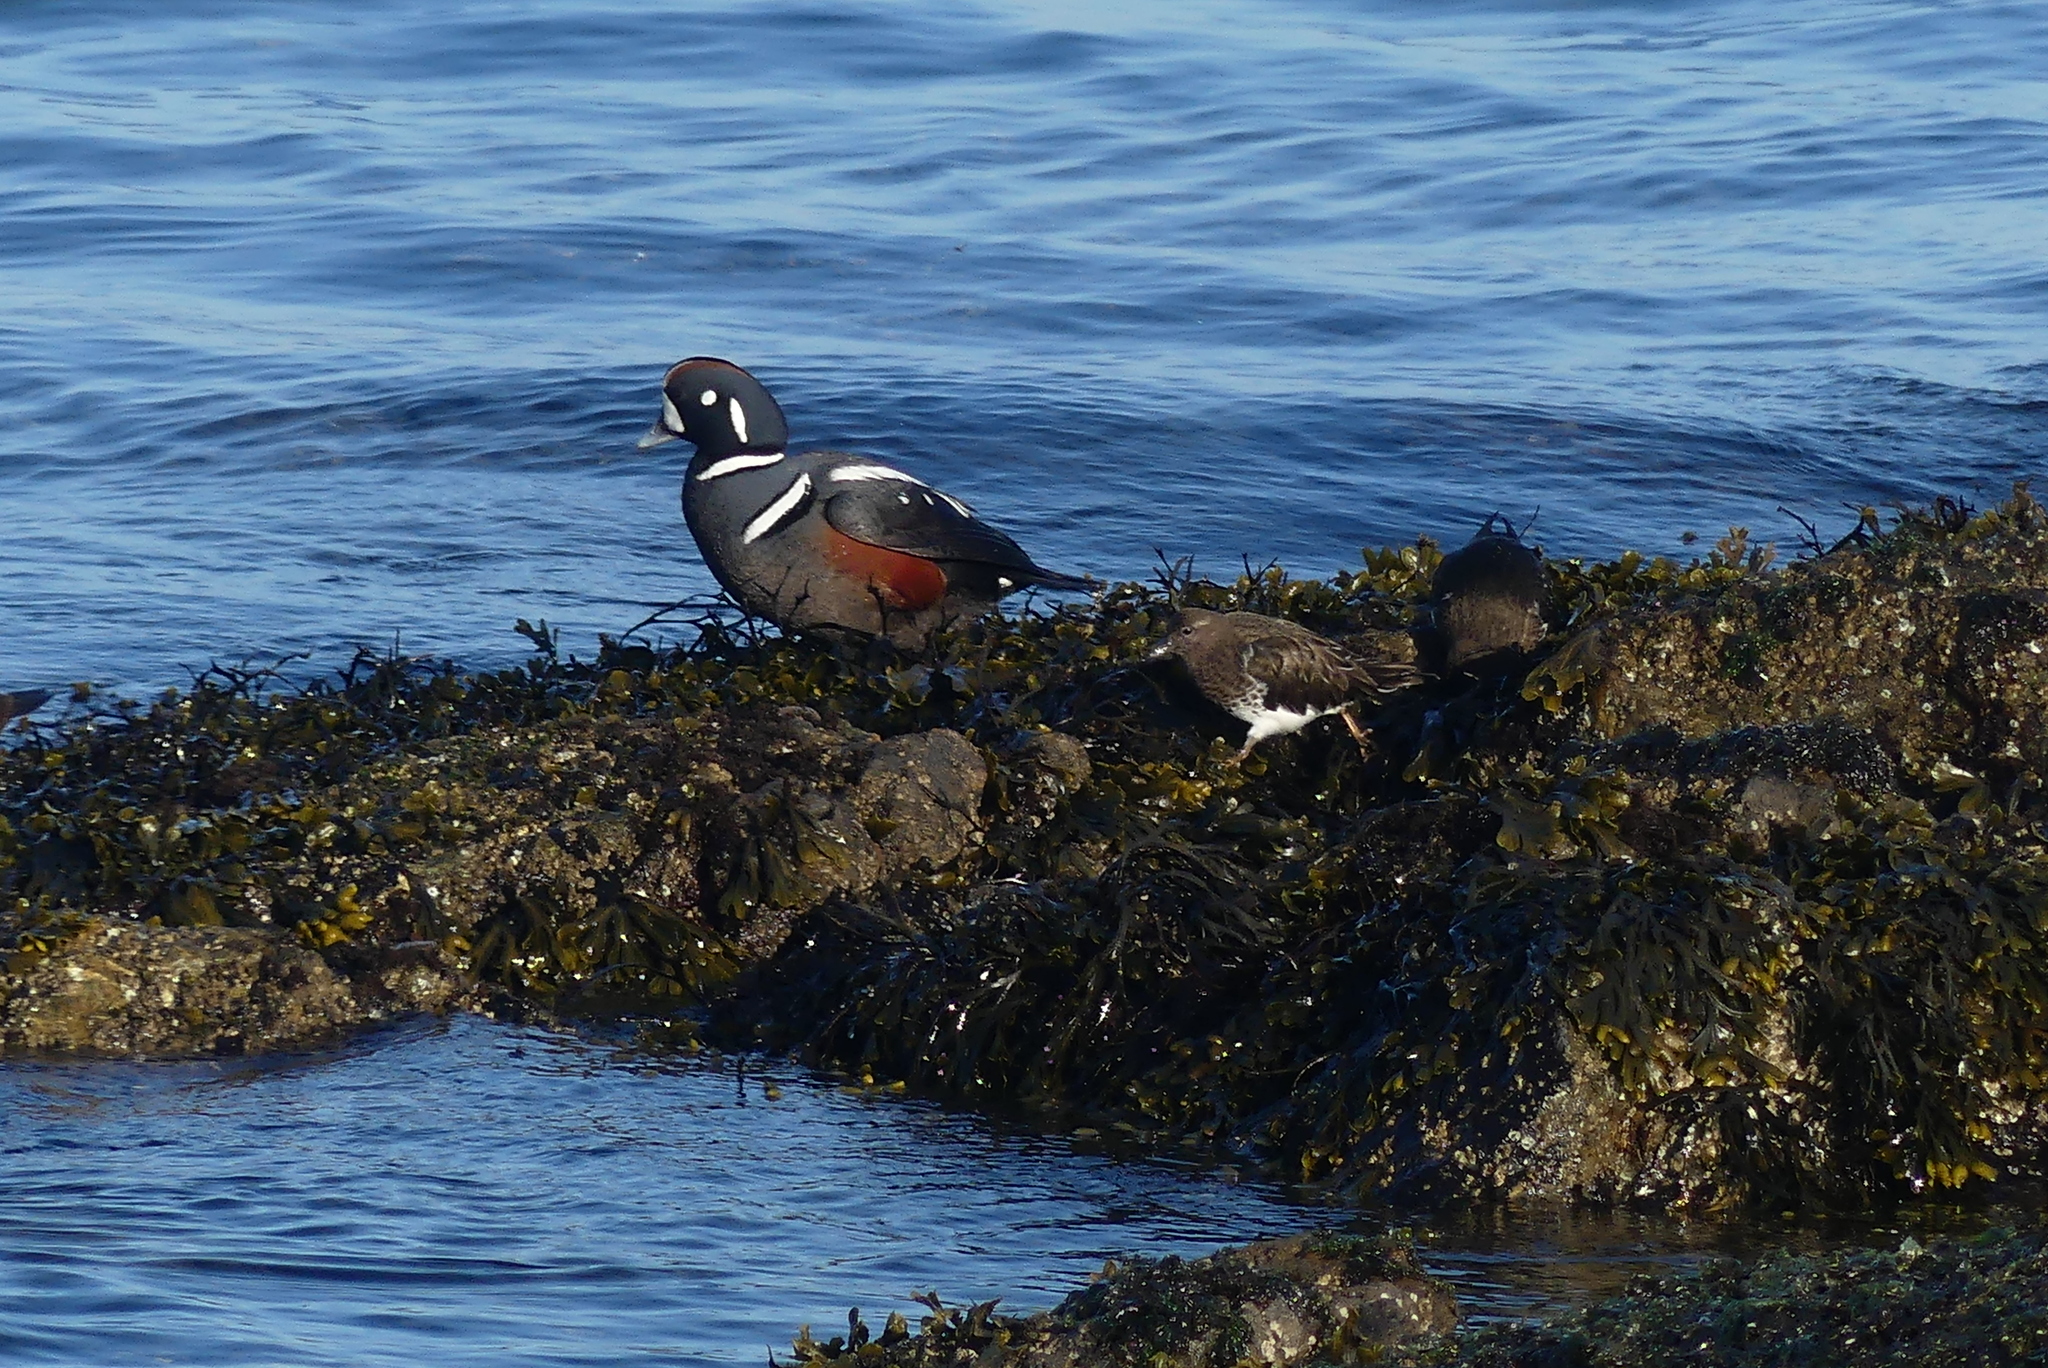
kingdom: Animalia
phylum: Chordata
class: Aves
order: Anseriformes
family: Anatidae
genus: Histrionicus
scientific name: Histrionicus histrionicus
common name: Harlequin duck
